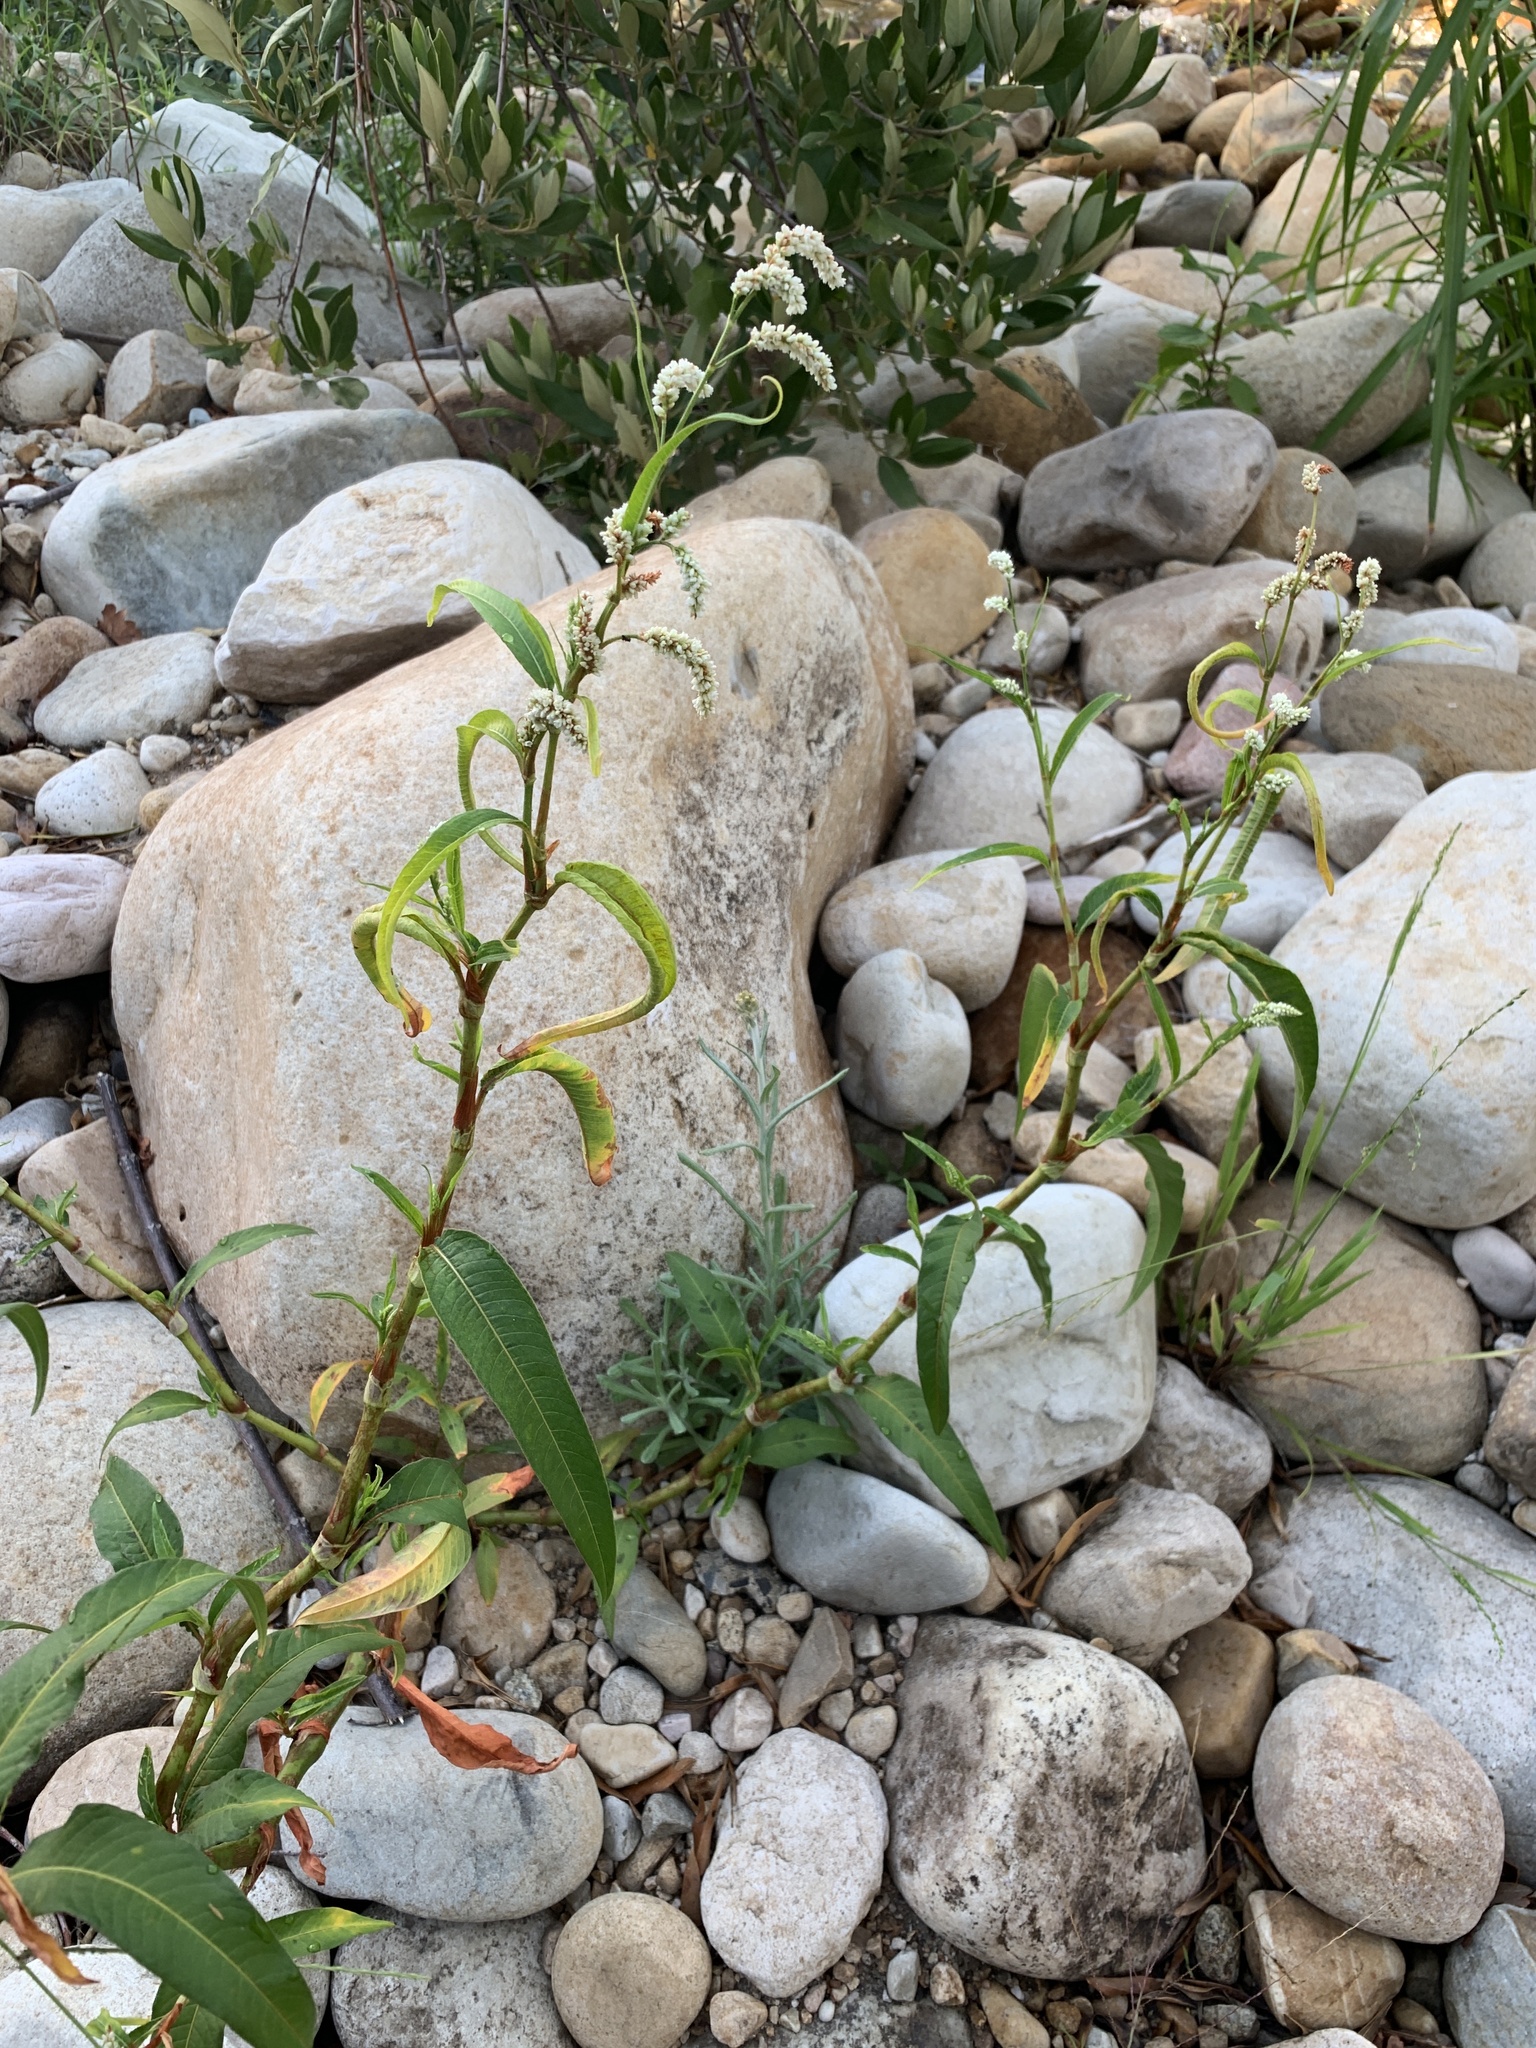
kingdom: Plantae
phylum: Tracheophyta
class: Magnoliopsida
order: Caryophyllales
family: Polygonaceae
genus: Persicaria
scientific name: Persicaria lapathifolia
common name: Curlytop knotweed
